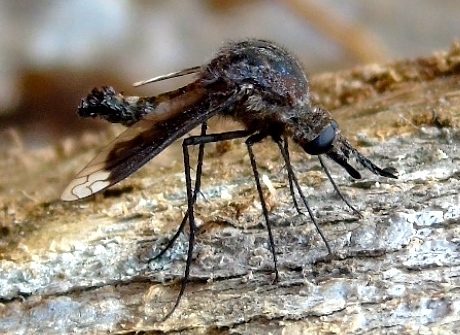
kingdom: Animalia
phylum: Arthropoda
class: Insecta
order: Diptera
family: Bombyliidae
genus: Lepidophora
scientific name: Lepidophora vetusta
